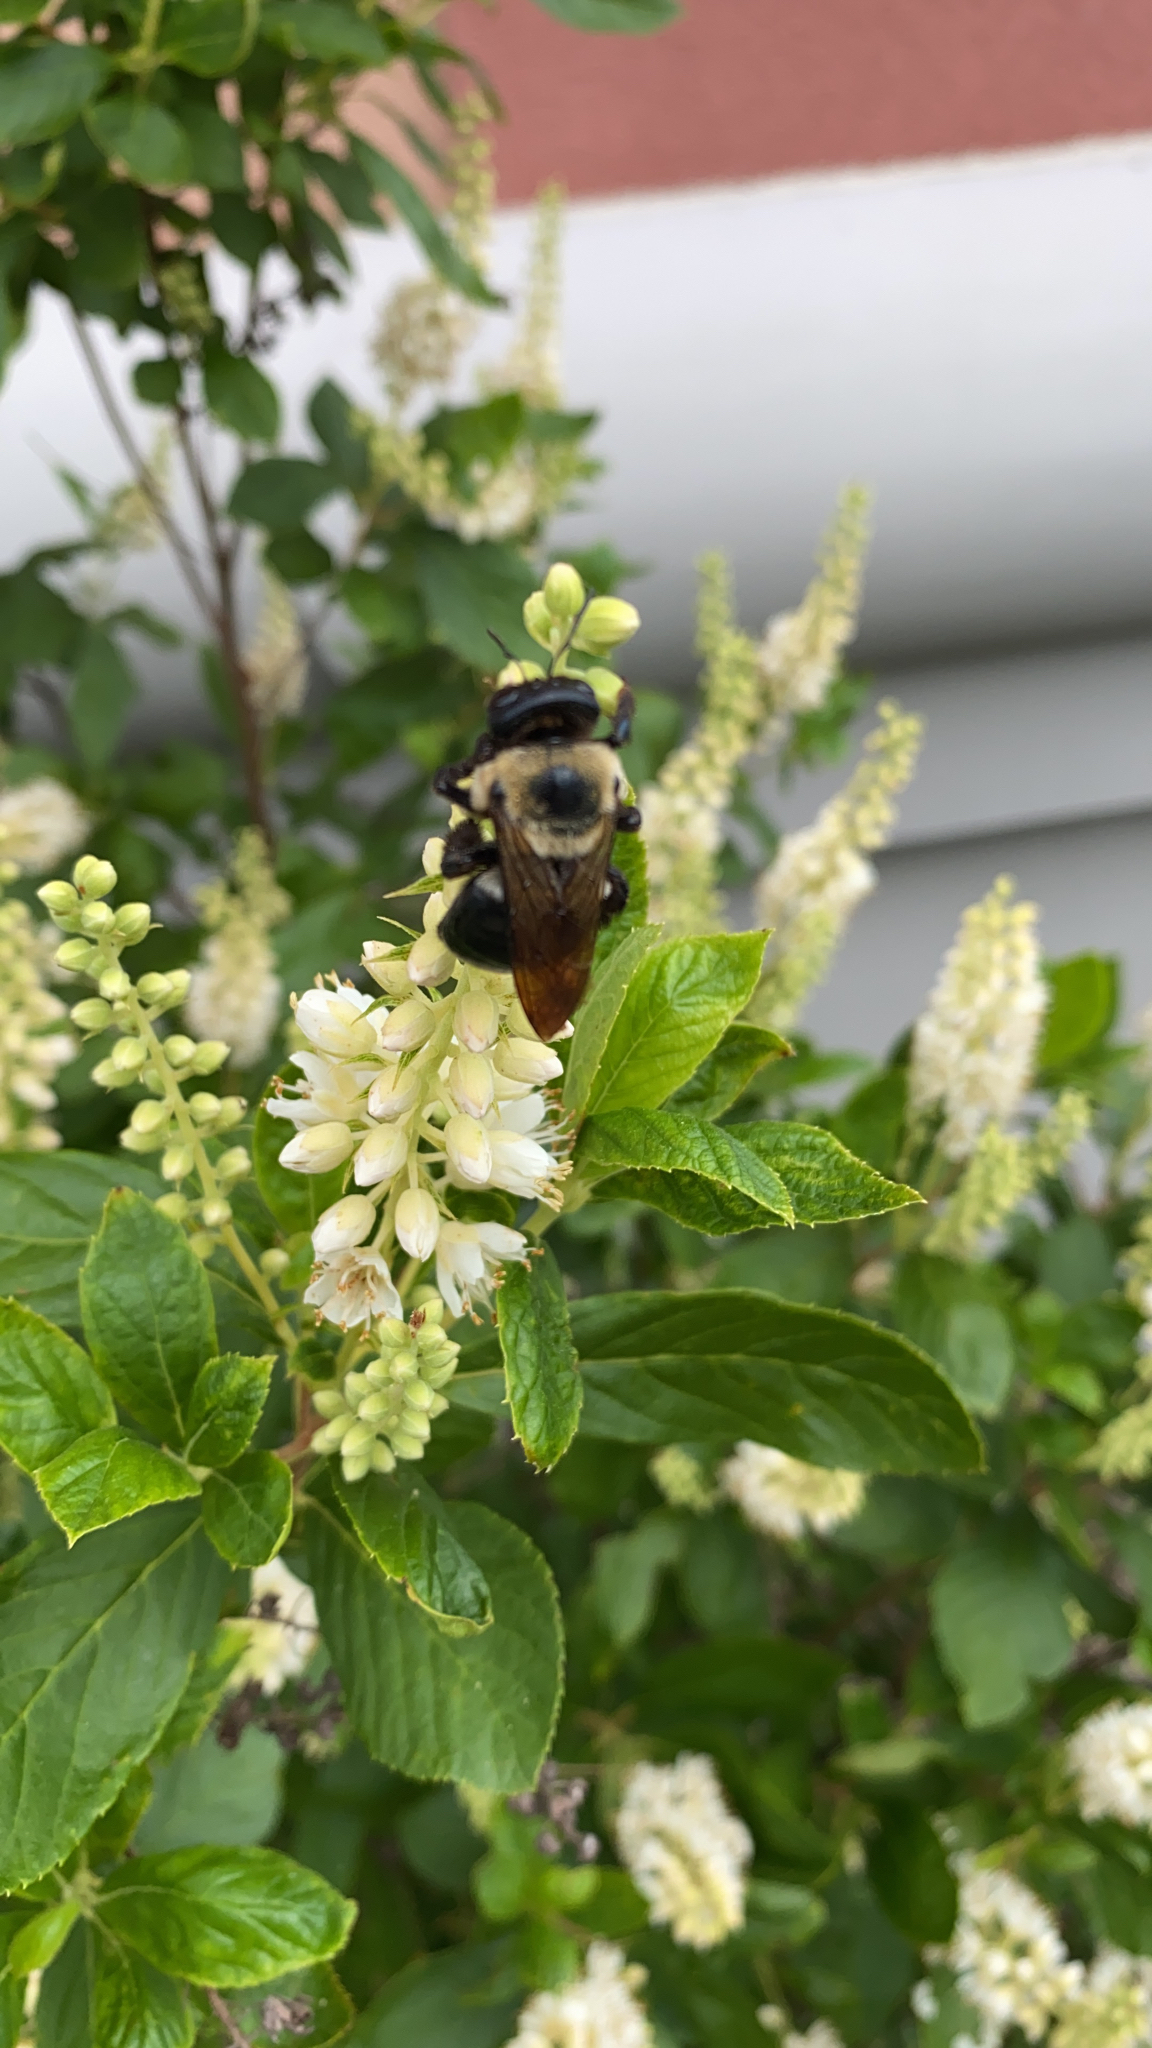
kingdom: Animalia
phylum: Arthropoda
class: Insecta
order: Hymenoptera
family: Apidae
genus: Xylocopa
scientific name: Xylocopa virginica
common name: Carpenter bee
